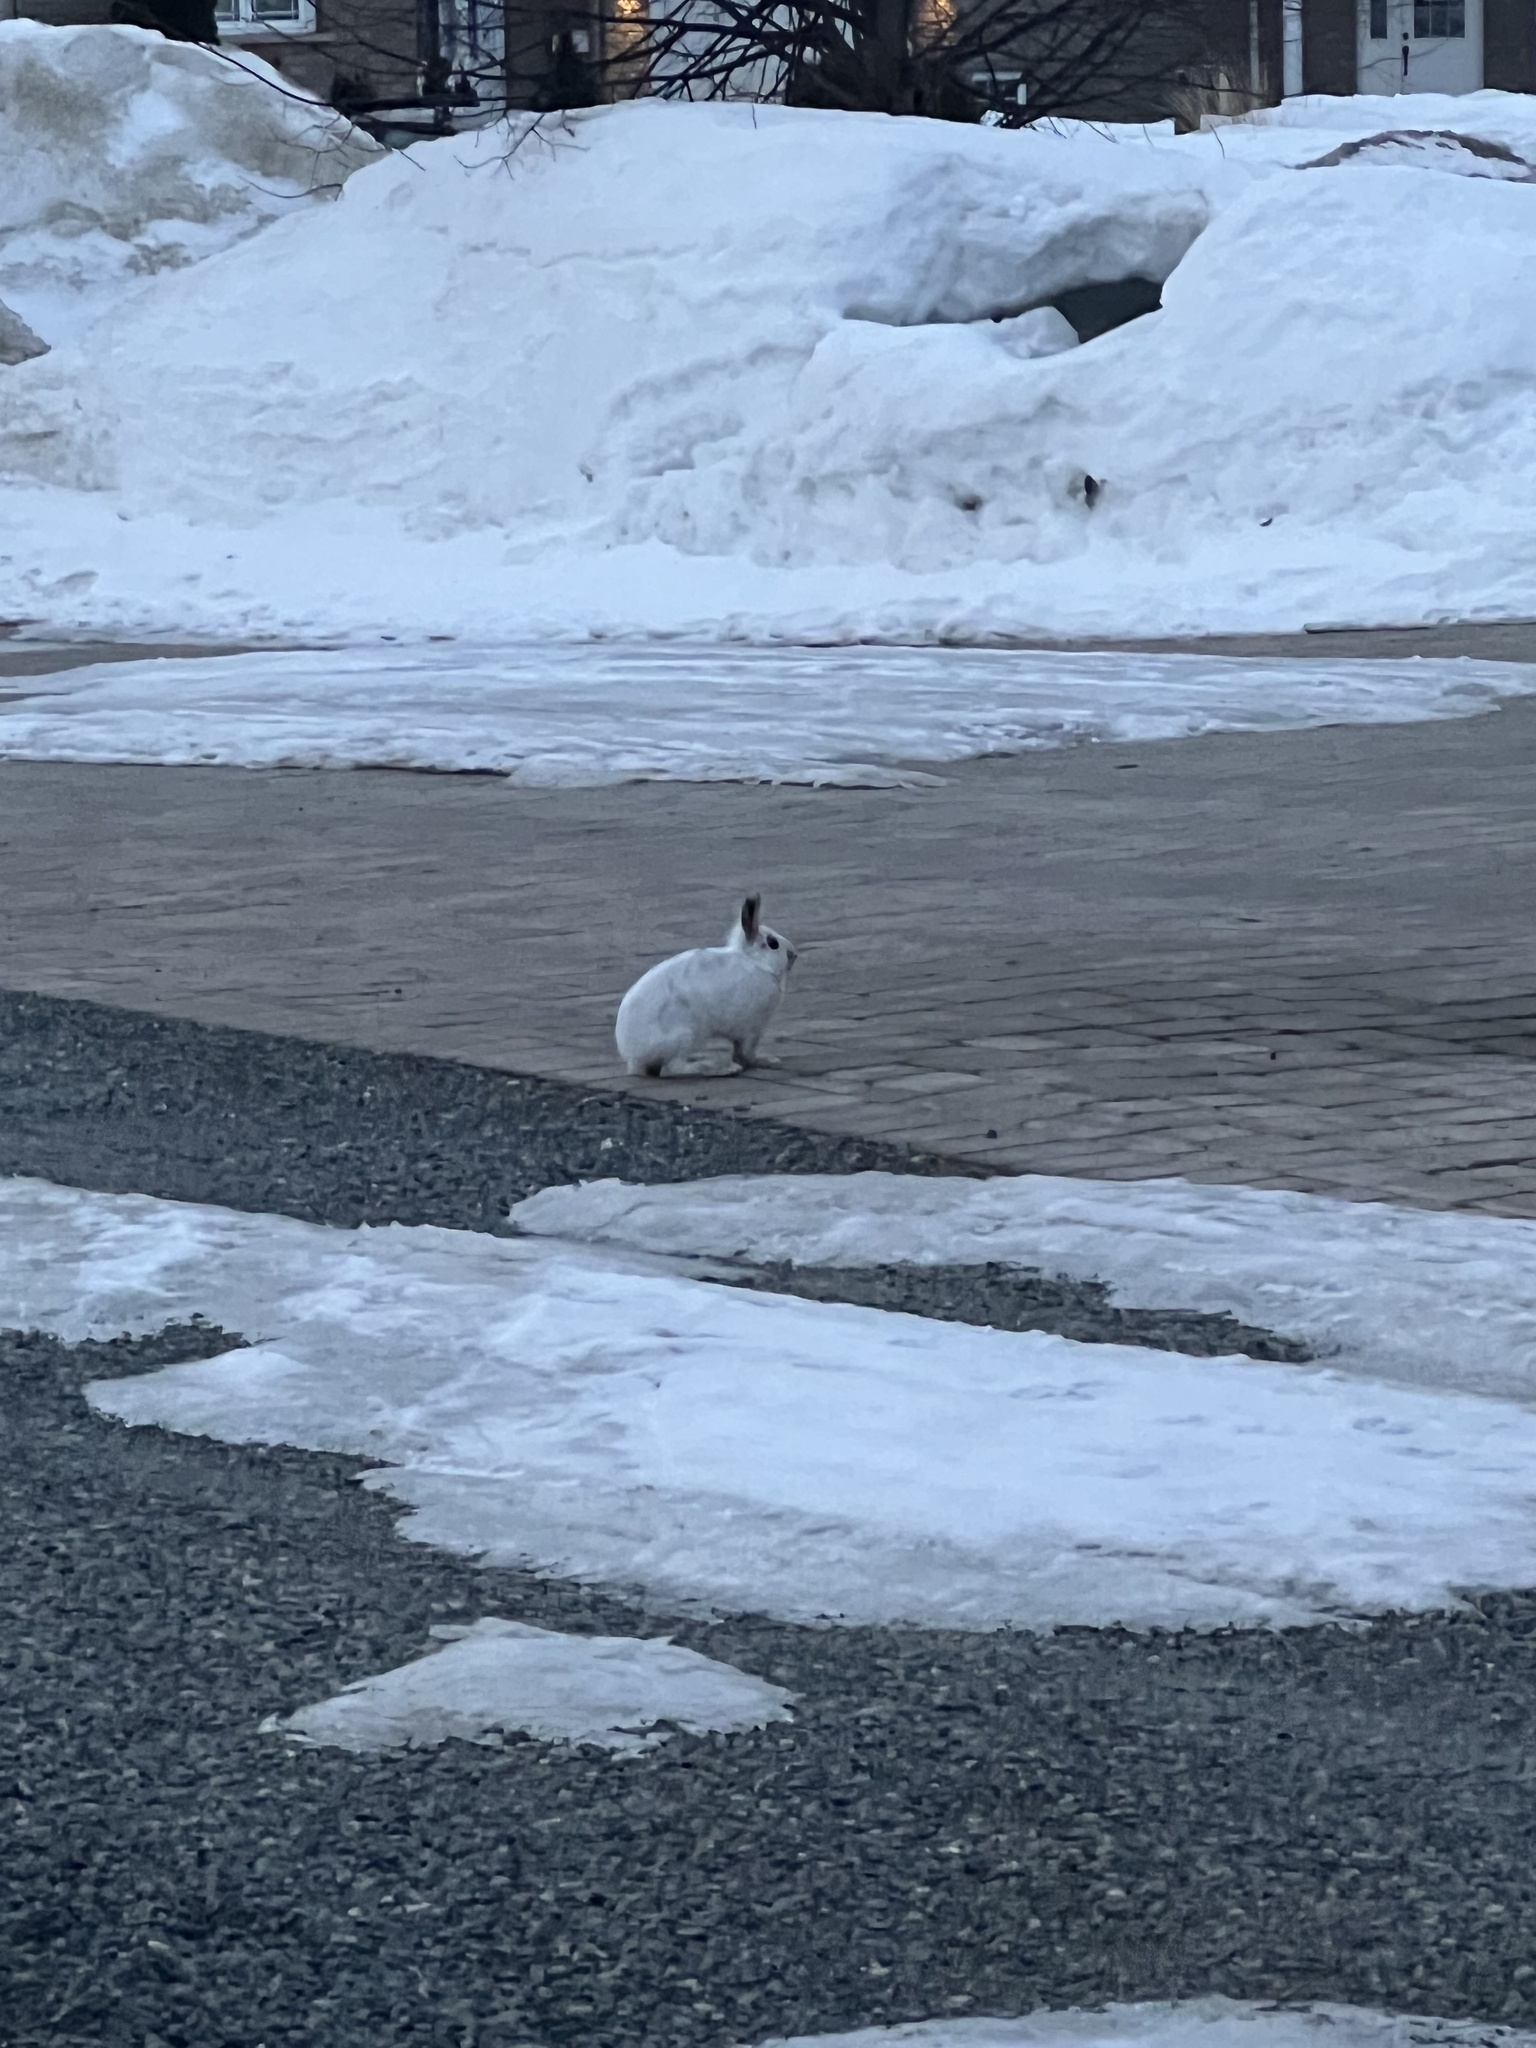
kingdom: Animalia
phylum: Chordata
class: Mammalia
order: Lagomorpha
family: Leporidae
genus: Lepus
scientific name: Lepus americanus
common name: Snowshoe hare
